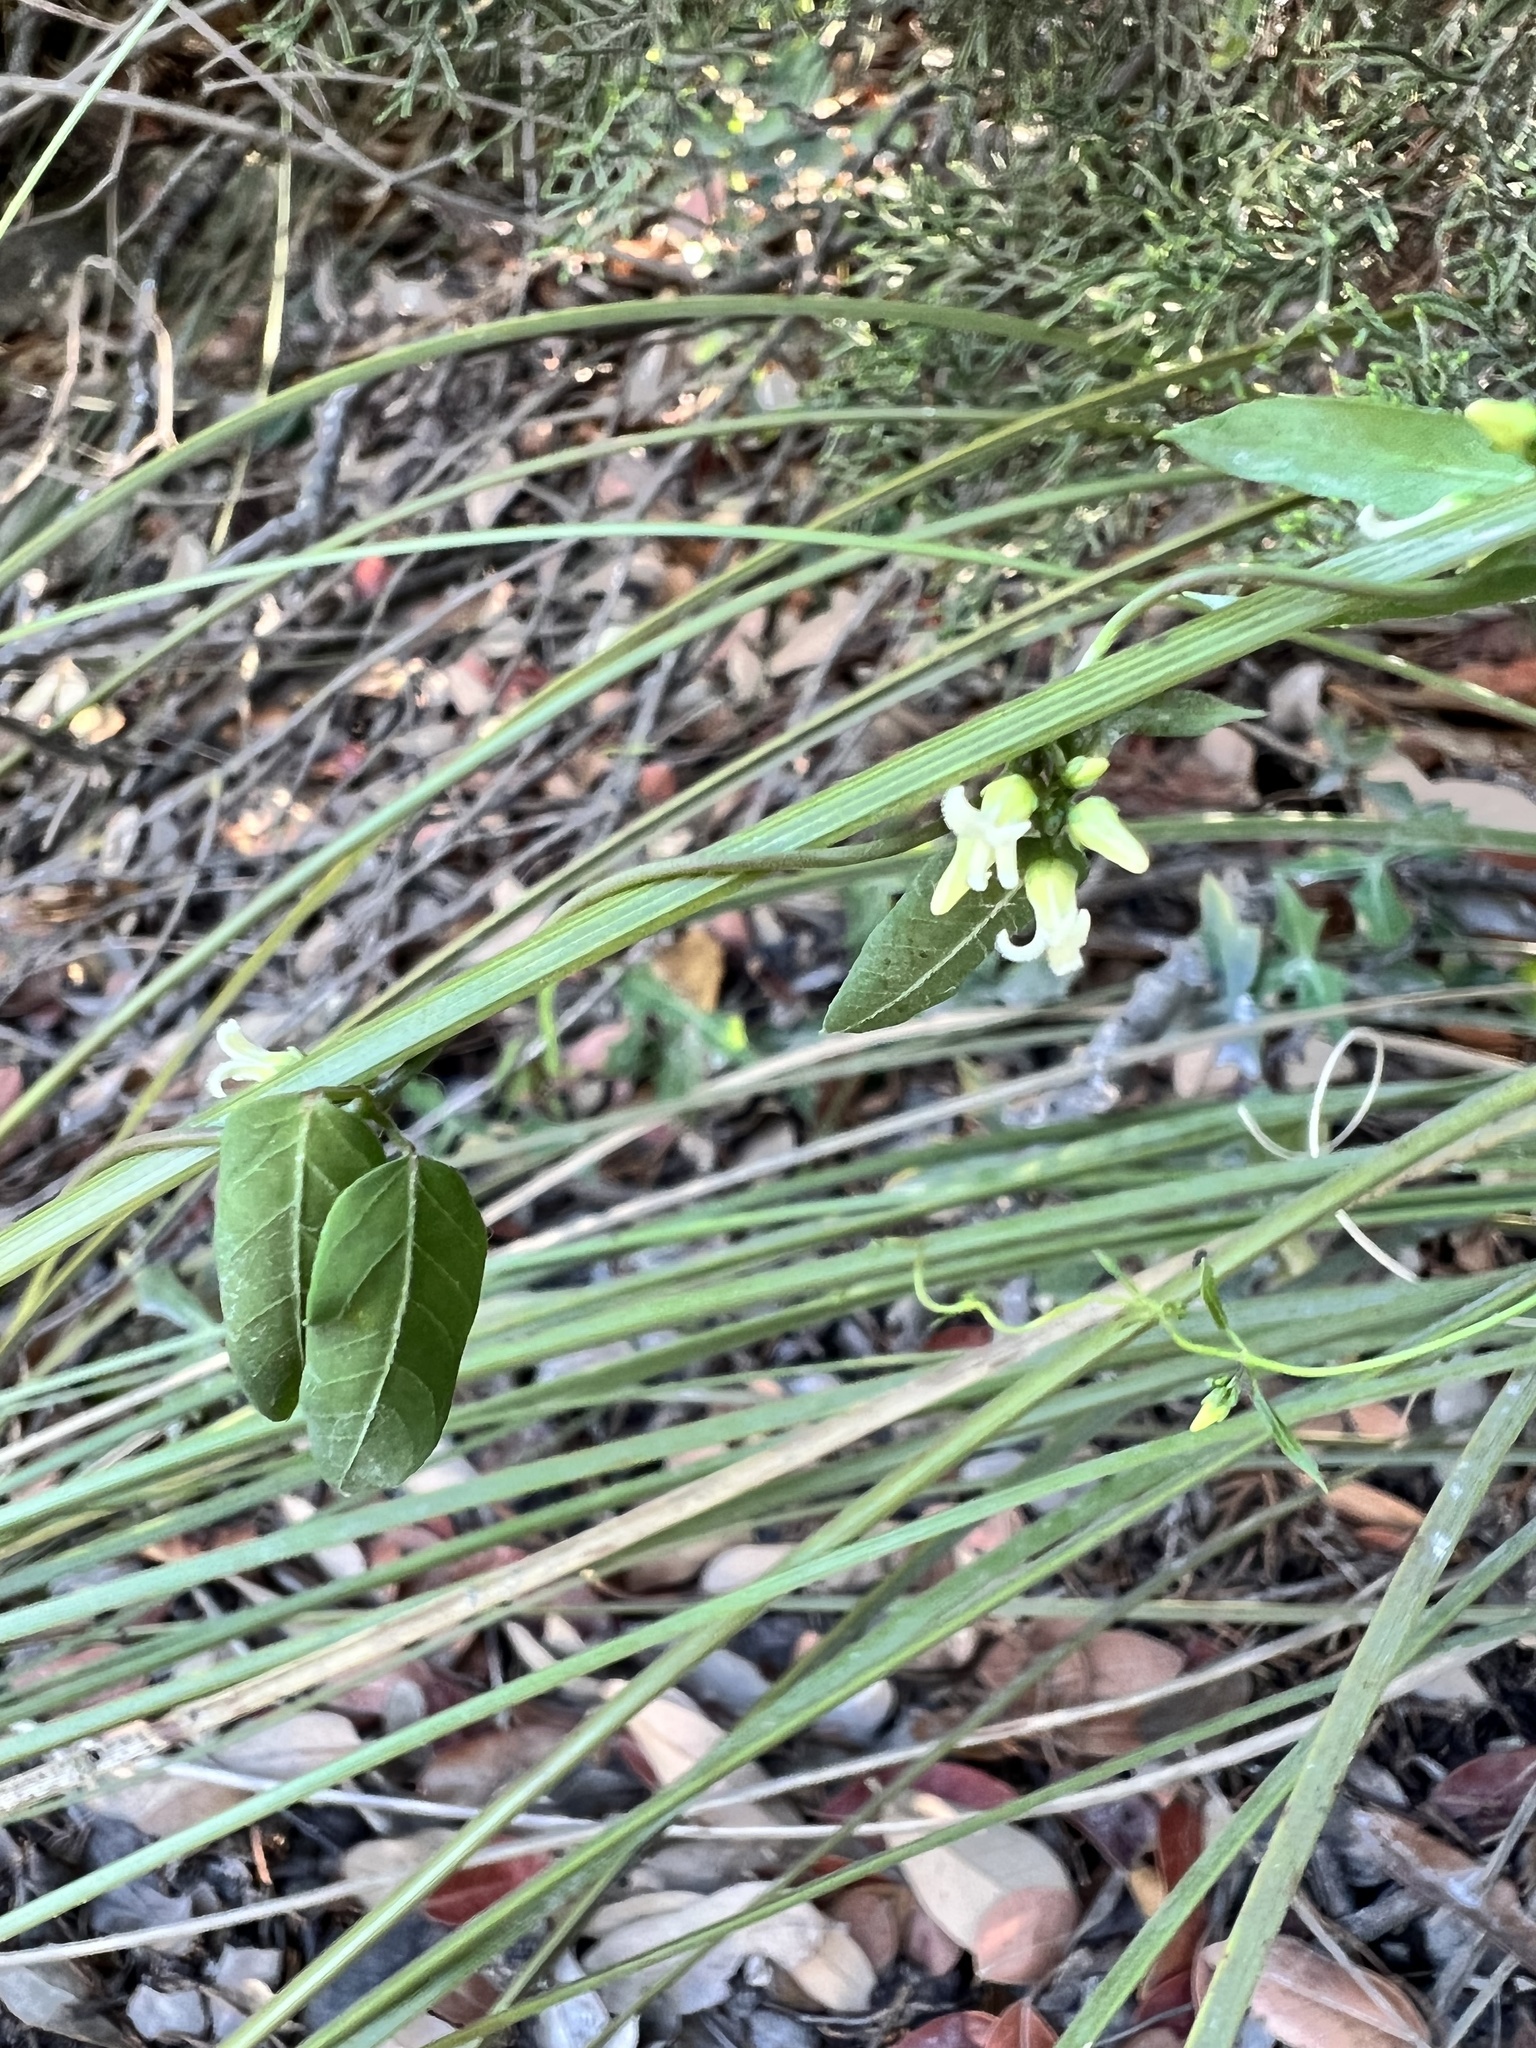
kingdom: Plantae
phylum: Tracheophyta
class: Magnoliopsida
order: Gentianales
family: Apocynaceae
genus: Metastelma
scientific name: Metastelma barbigerum
